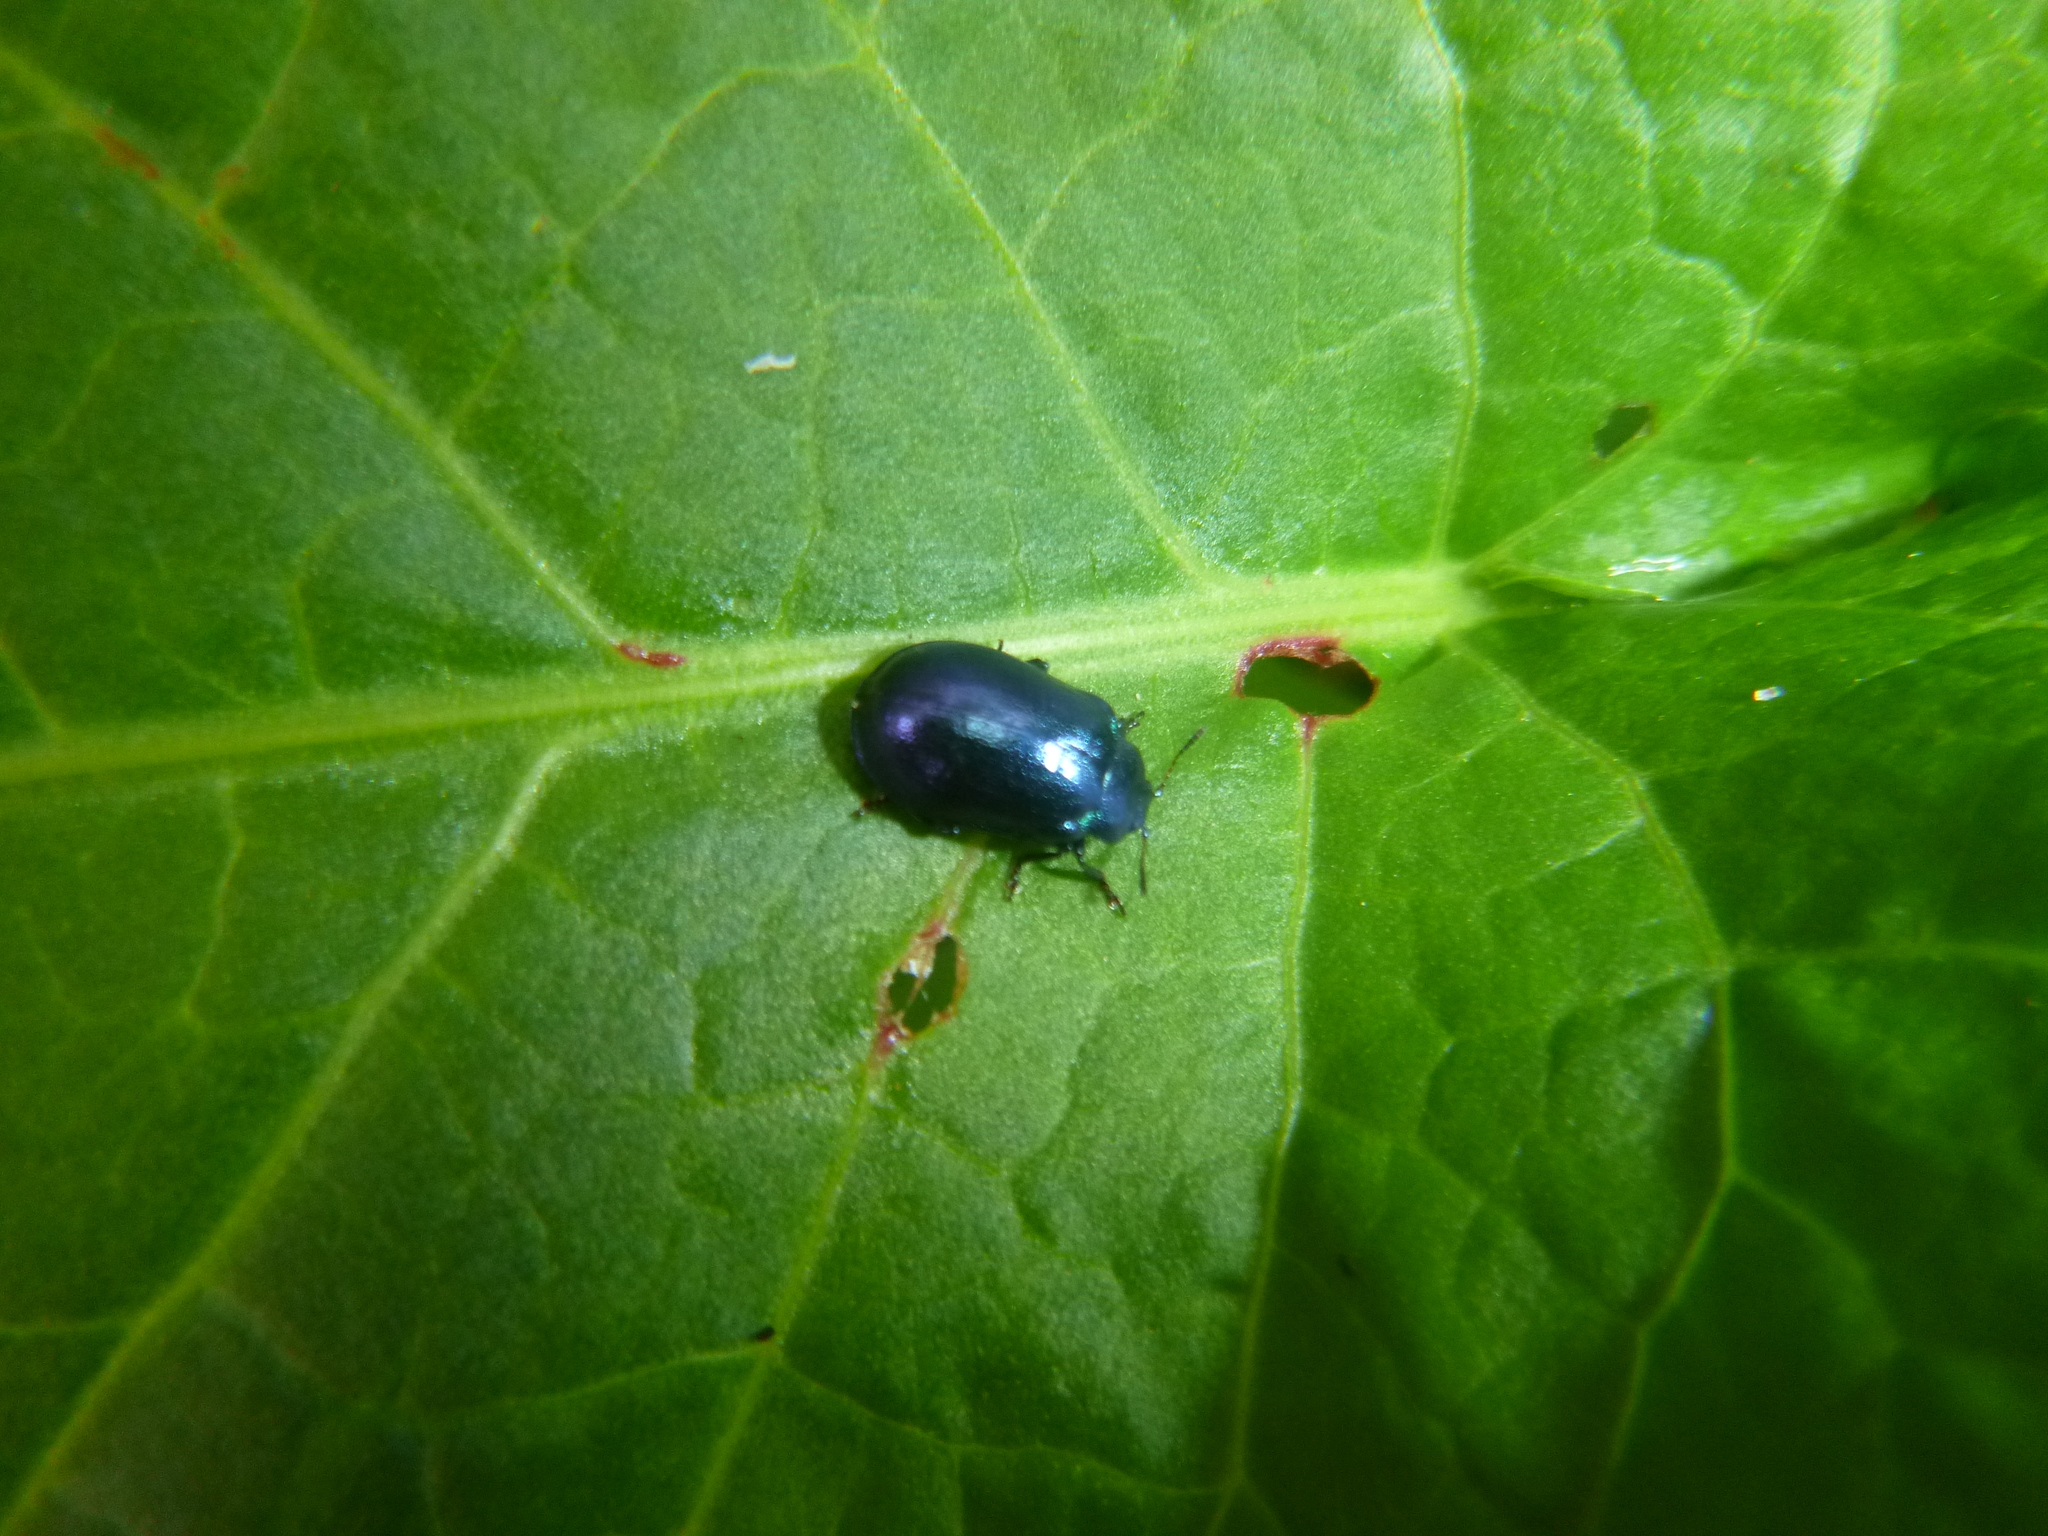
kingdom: Animalia
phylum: Arthropoda
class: Insecta
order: Coleoptera
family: Chrysomelidae
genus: Plagiosterna
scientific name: Plagiosterna aenea
